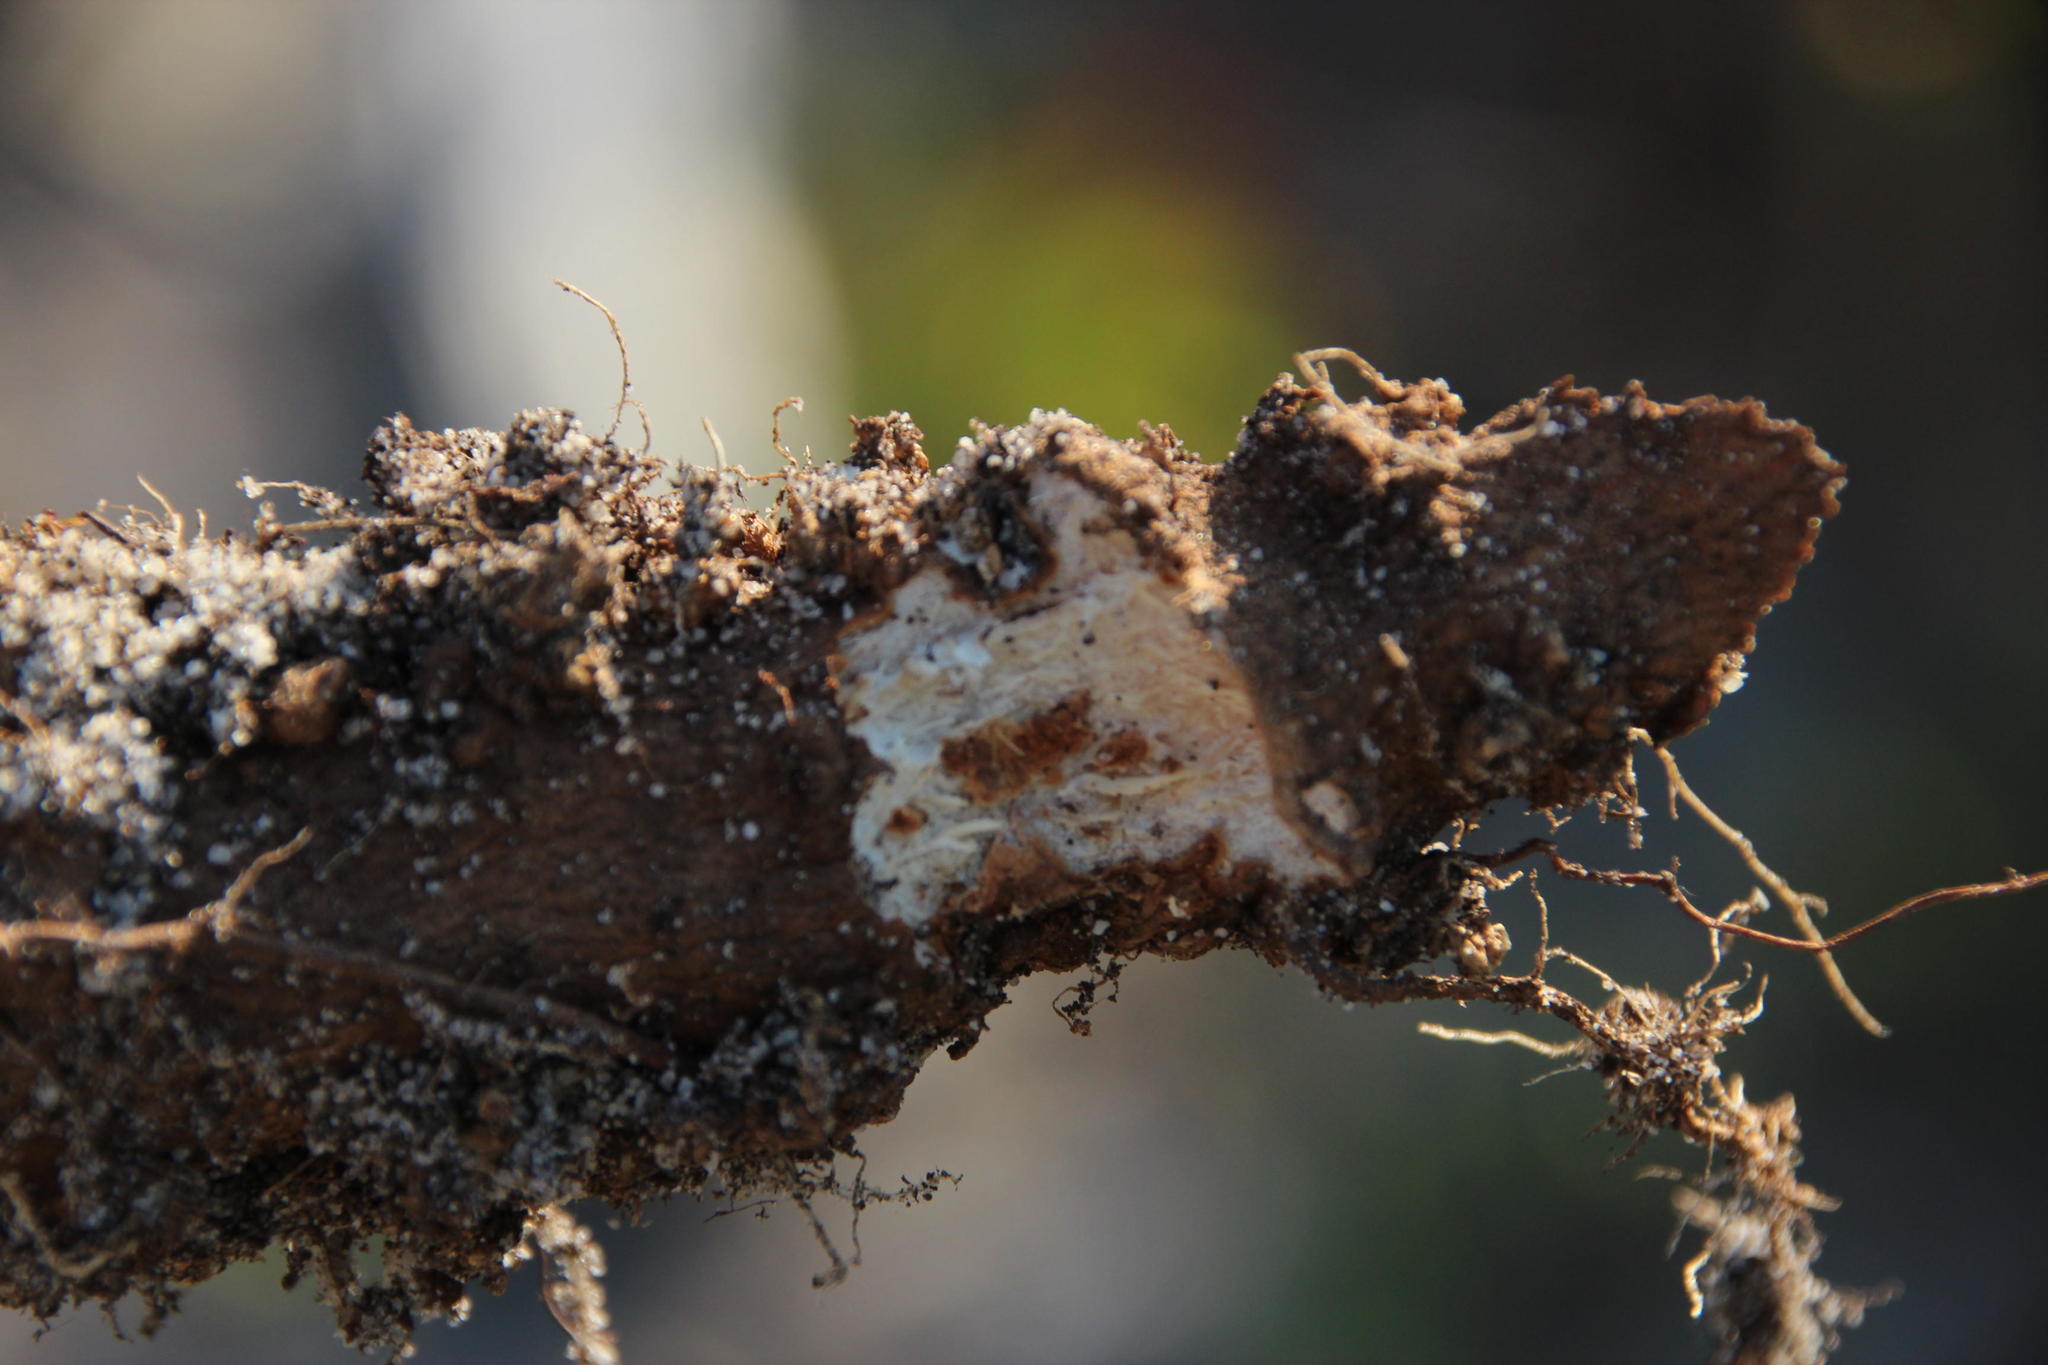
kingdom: Animalia
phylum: Chordata
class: Mammalia
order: Rodentia
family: Hystricidae
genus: Hystrix
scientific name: Hystrix africaeaustralis
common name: Cape porcupine
